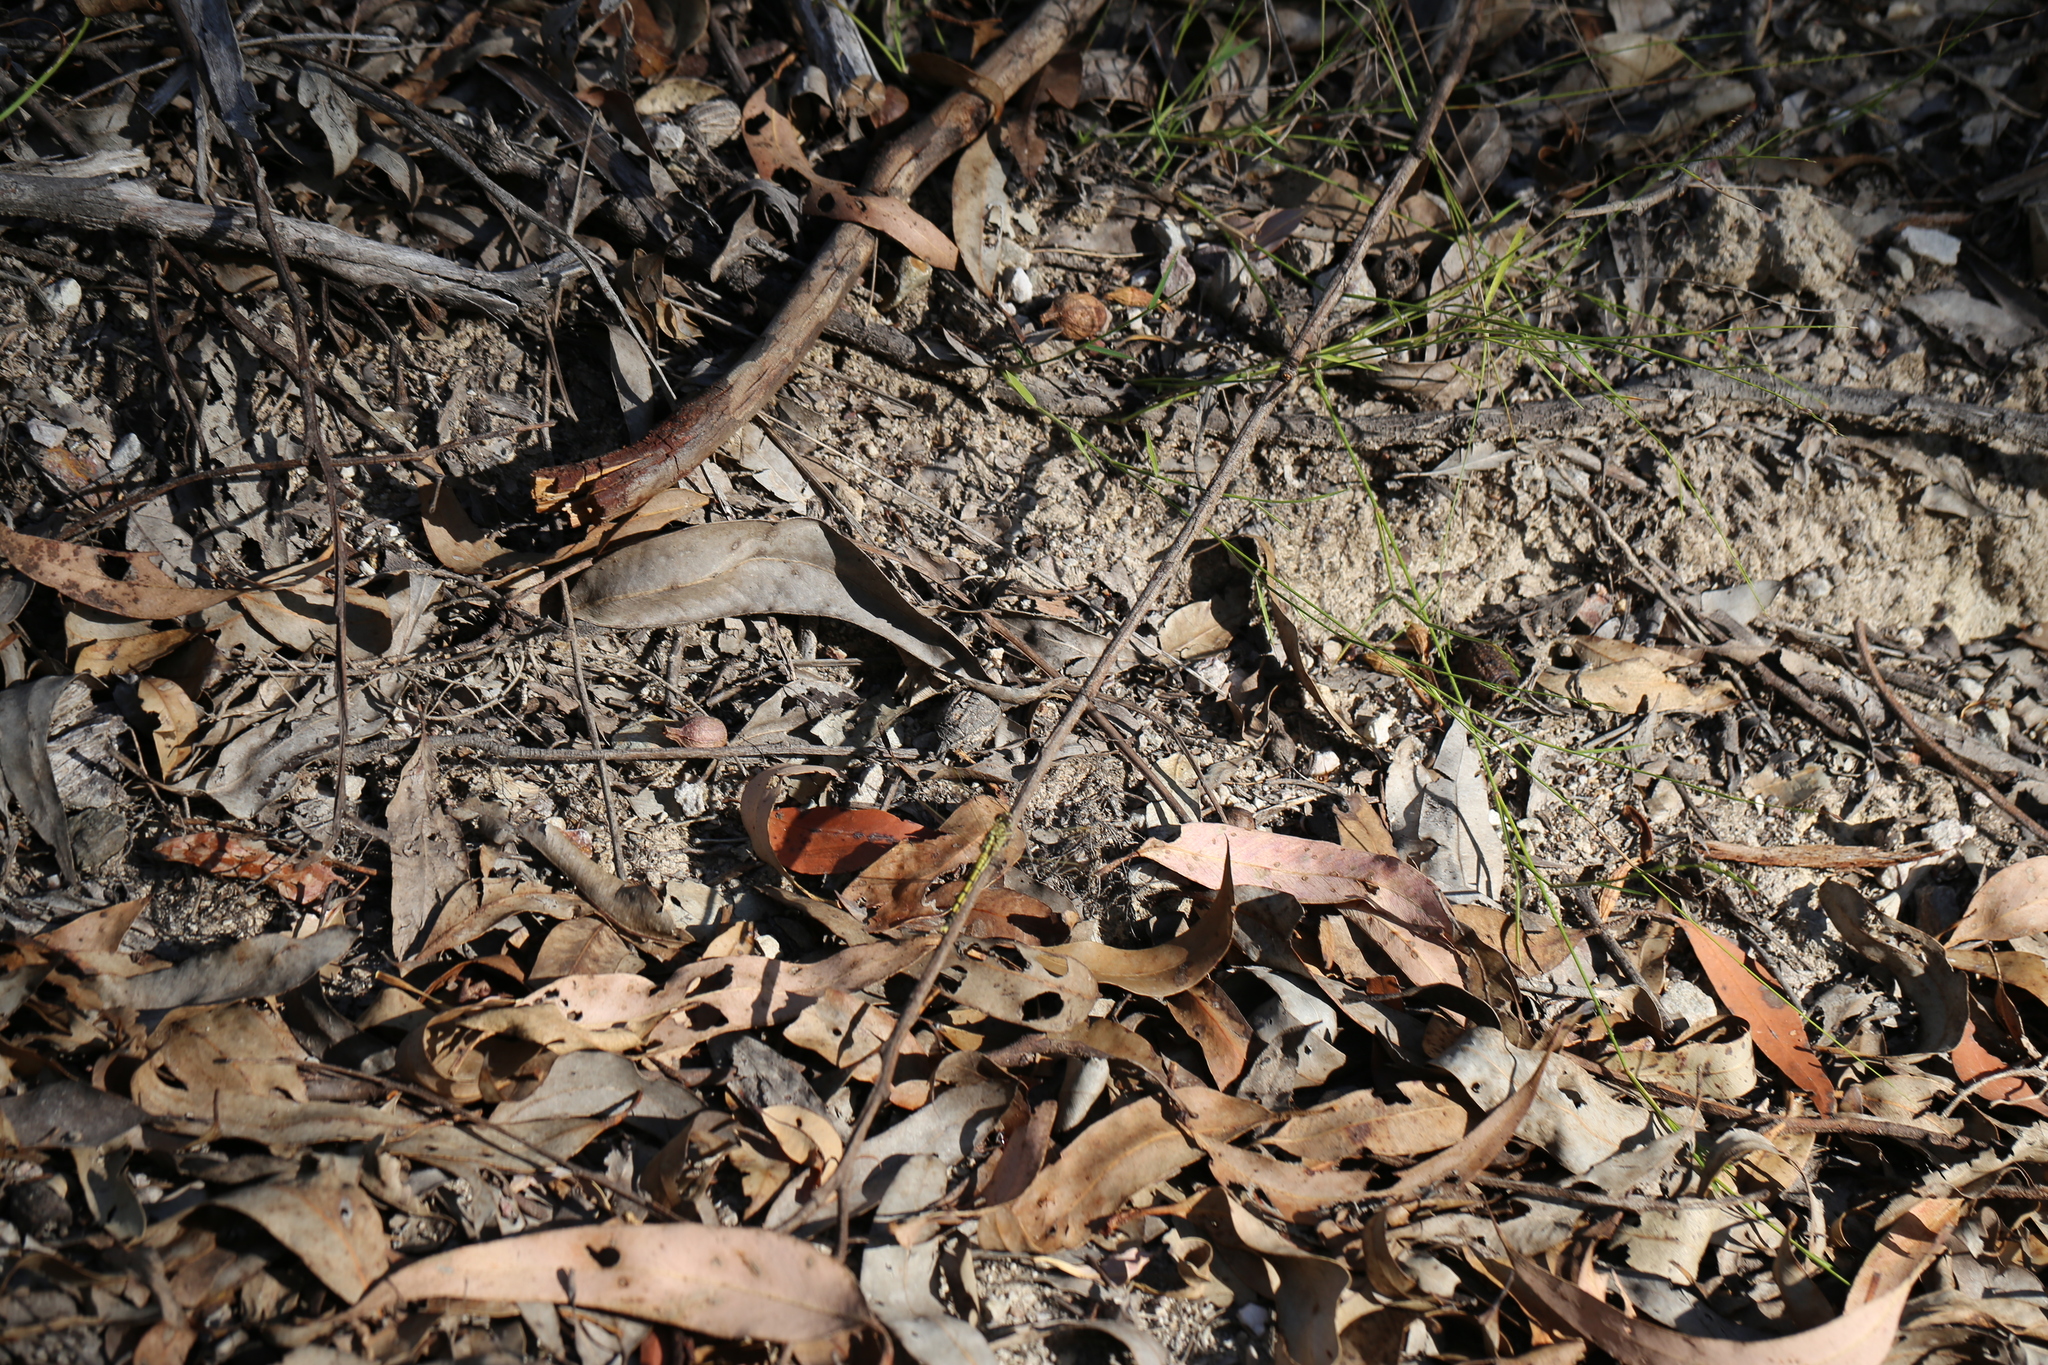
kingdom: Animalia
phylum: Arthropoda
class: Insecta
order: Odonata
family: Libellulidae
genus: Orthetrum
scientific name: Orthetrum caledonicum
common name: Blue skimmer
